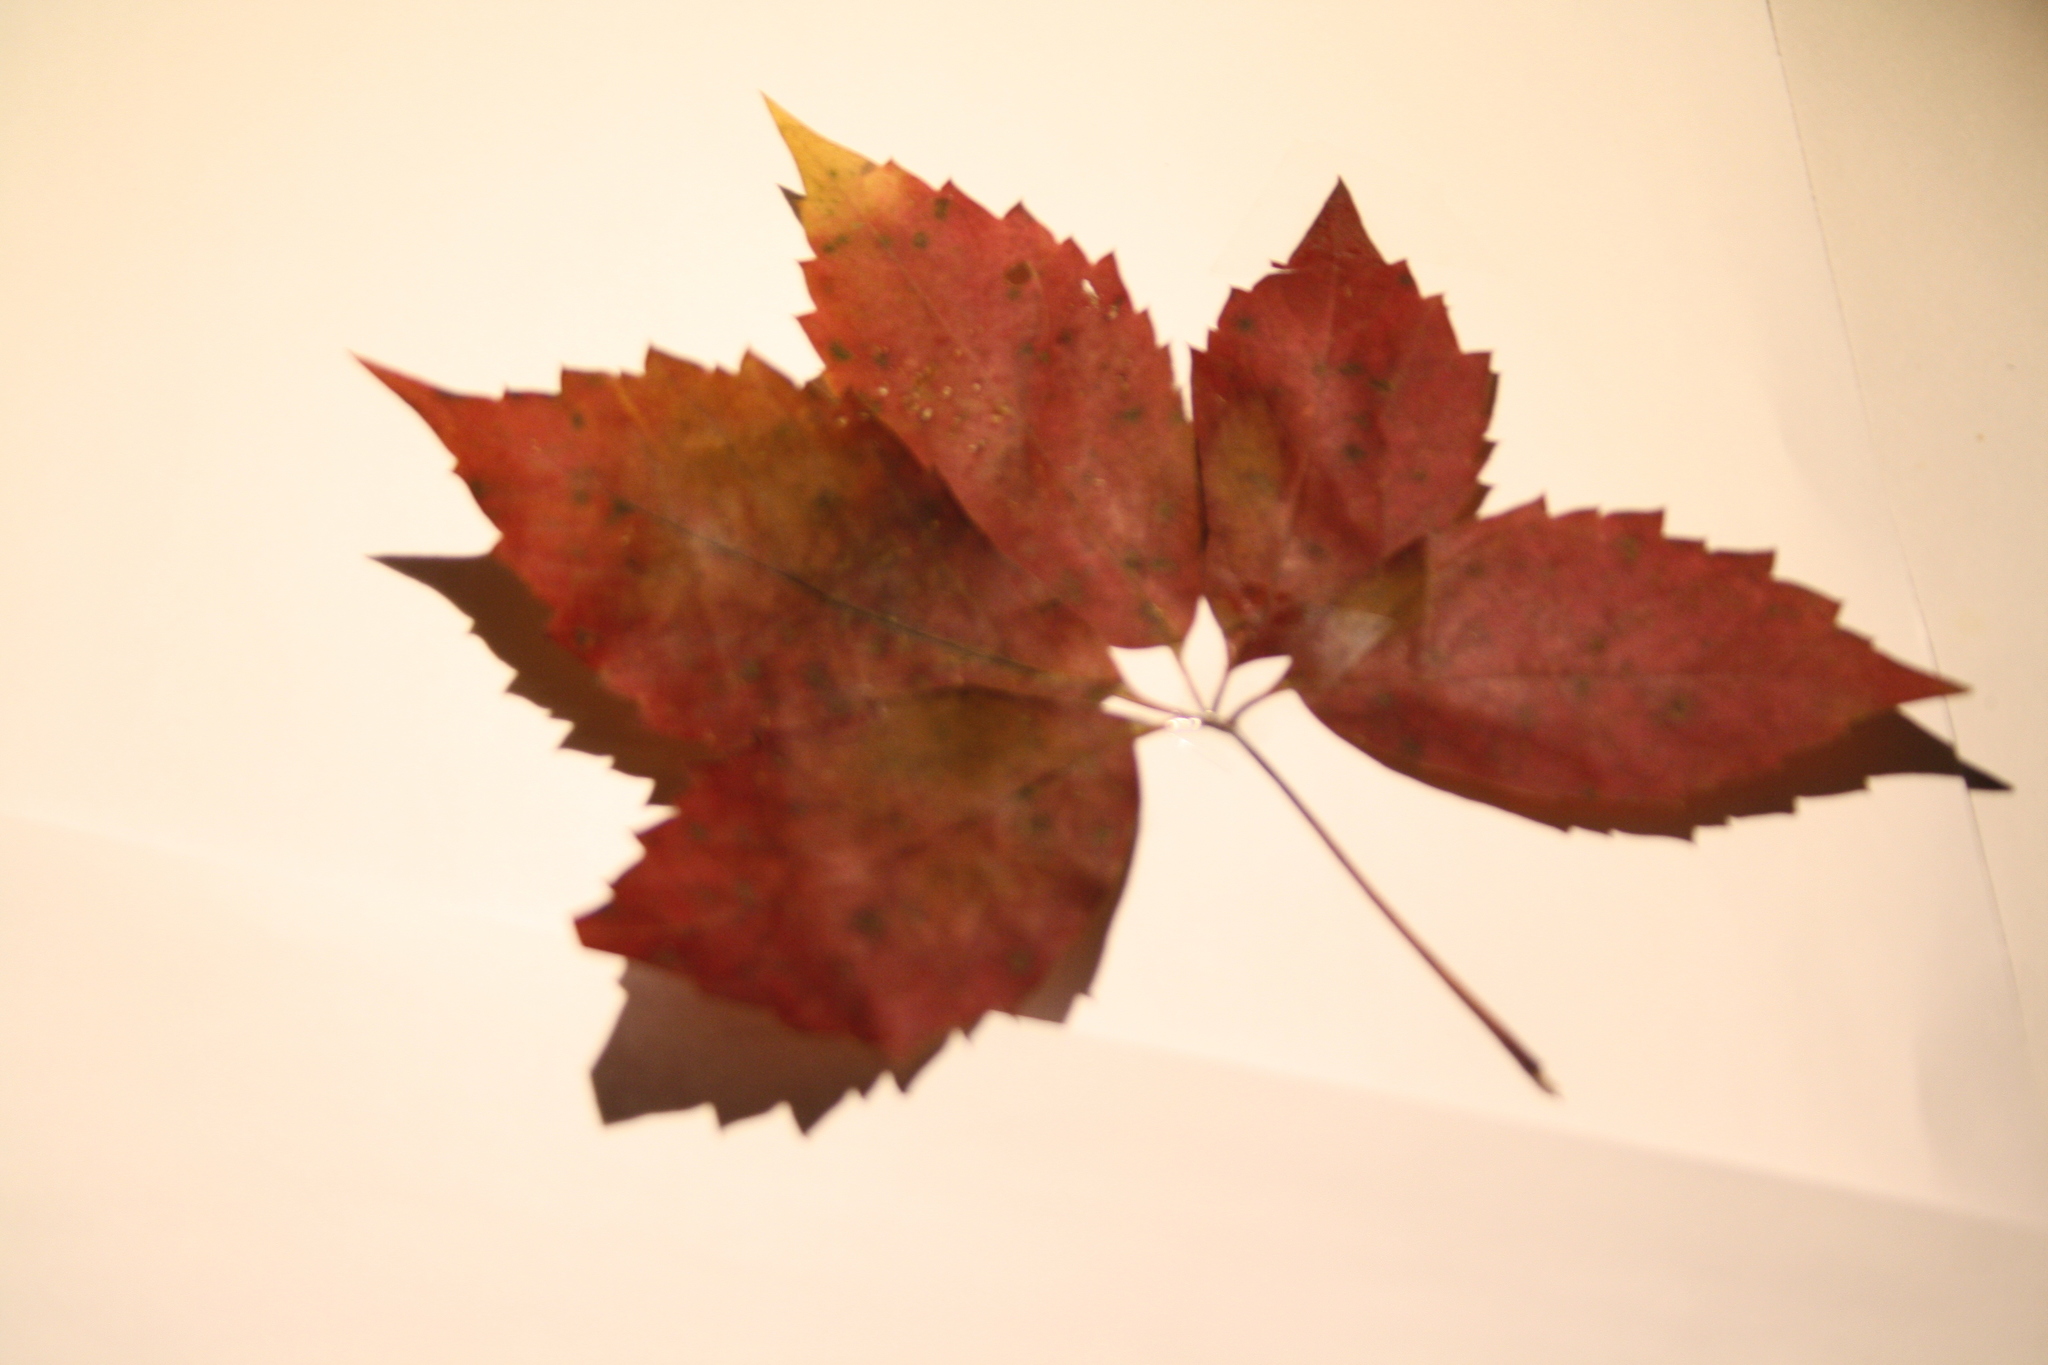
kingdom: Plantae
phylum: Tracheophyta
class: Magnoliopsida
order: Vitales
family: Vitaceae
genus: Parthenocissus
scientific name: Parthenocissus inserta
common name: False virginia-creeper
